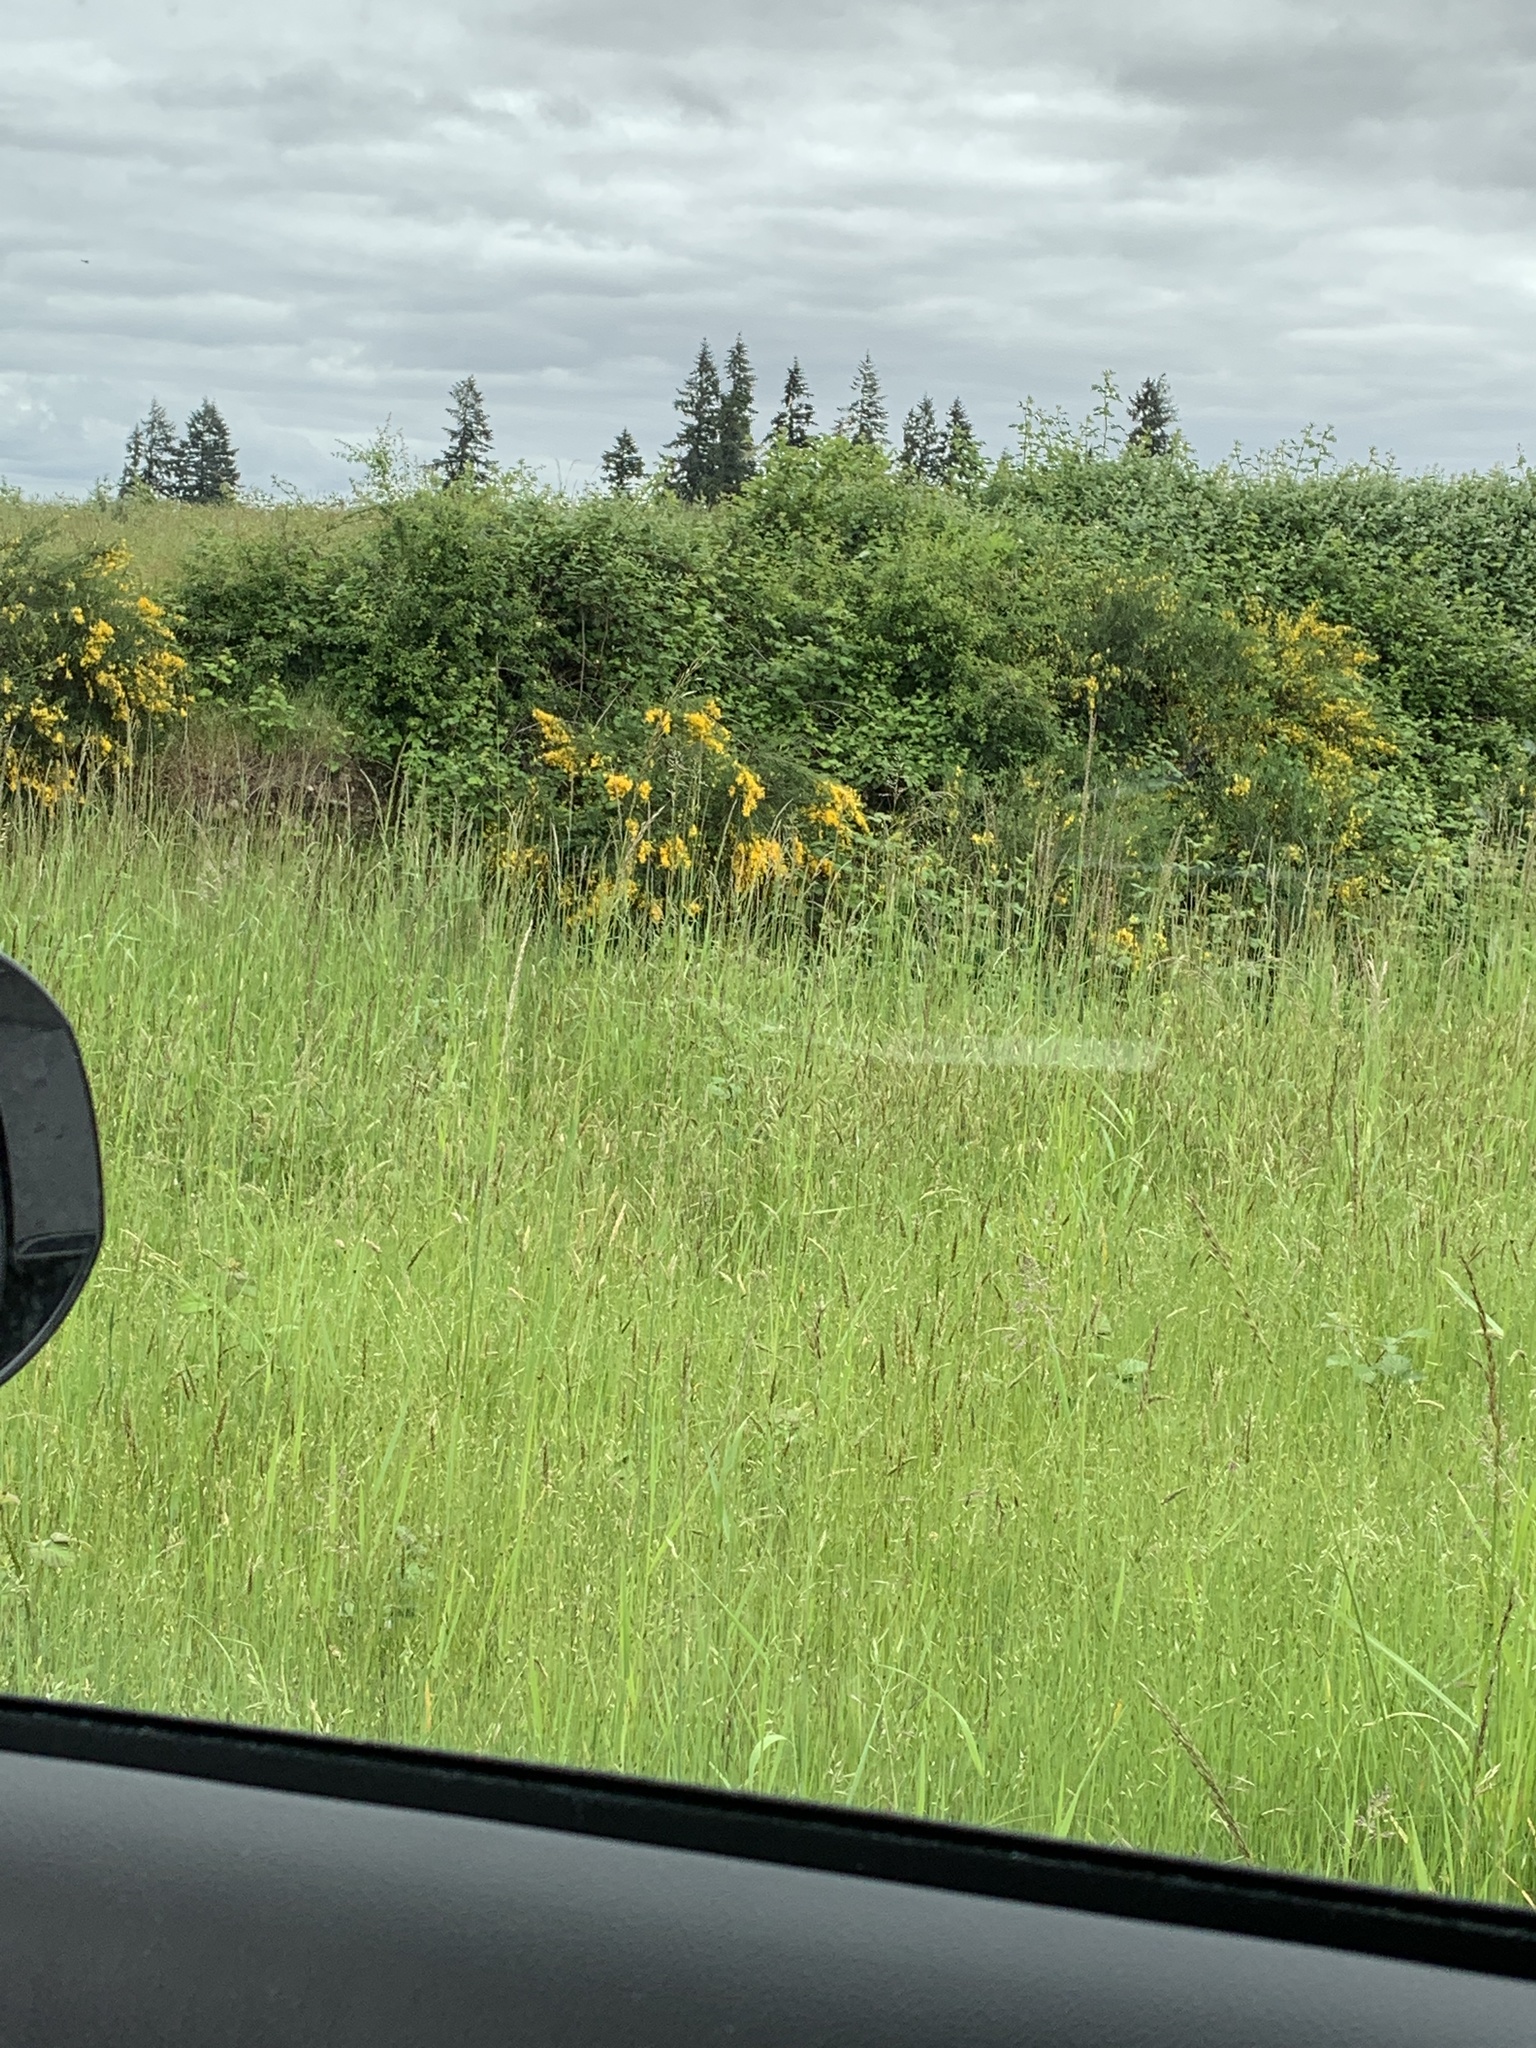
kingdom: Plantae
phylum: Tracheophyta
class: Magnoliopsida
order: Fabales
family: Fabaceae
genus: Cytisus
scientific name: Cytisus scoparius
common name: Scotch broom
